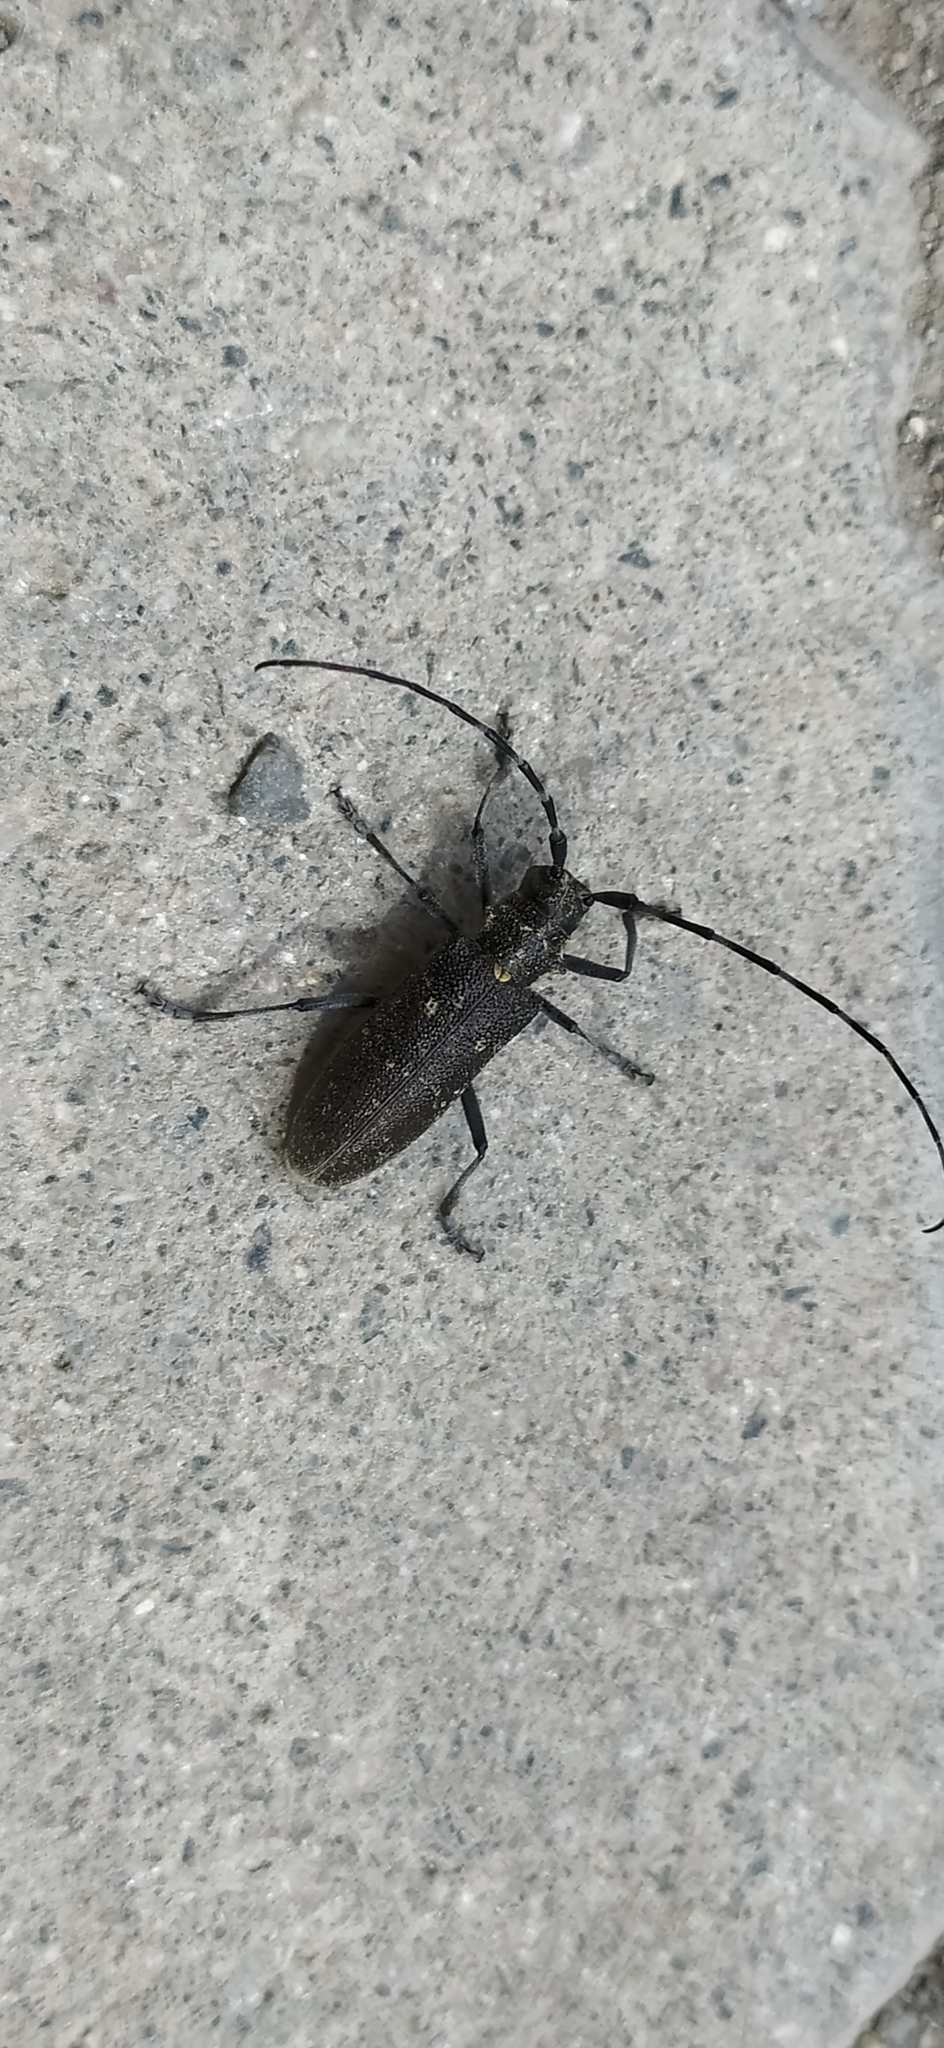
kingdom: Animalia
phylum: Arthropoda
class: Insecta
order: Coleoptera
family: Cerambycidae
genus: Monochamus
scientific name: Monochamus sutor
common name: Pine sawyer
